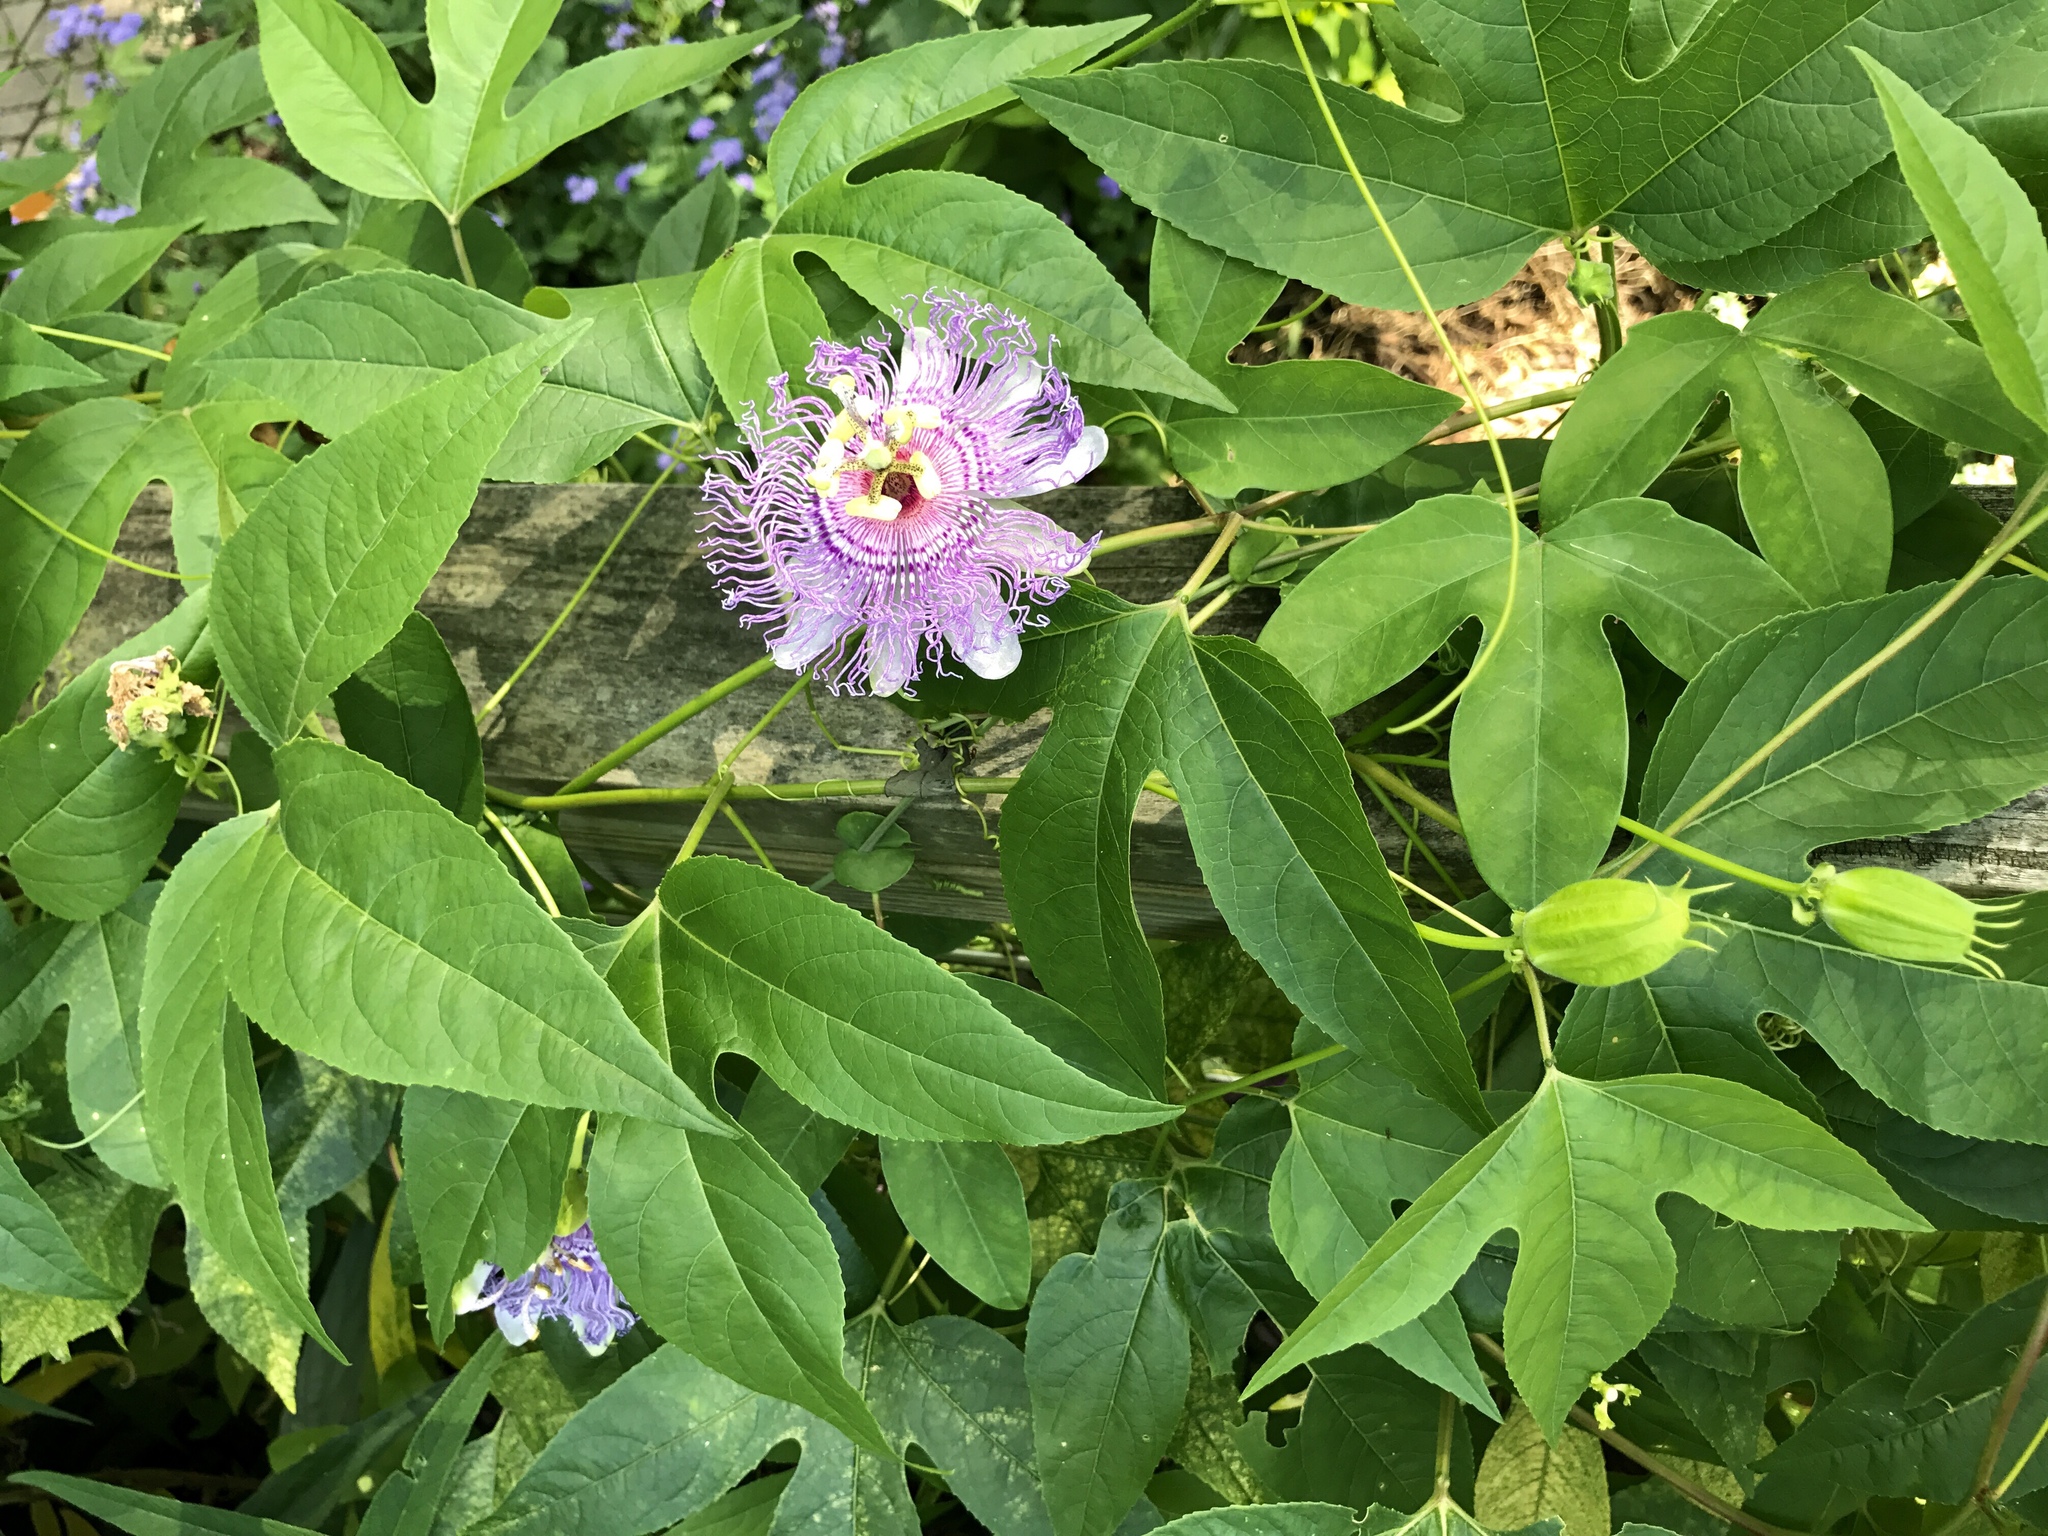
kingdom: Plantae
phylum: Tracheophyta
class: Magnoliopsida
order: Malpighiales
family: Passifloraceae
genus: Passiflora
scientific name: Passiflora incarnata
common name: Apricot-vine
